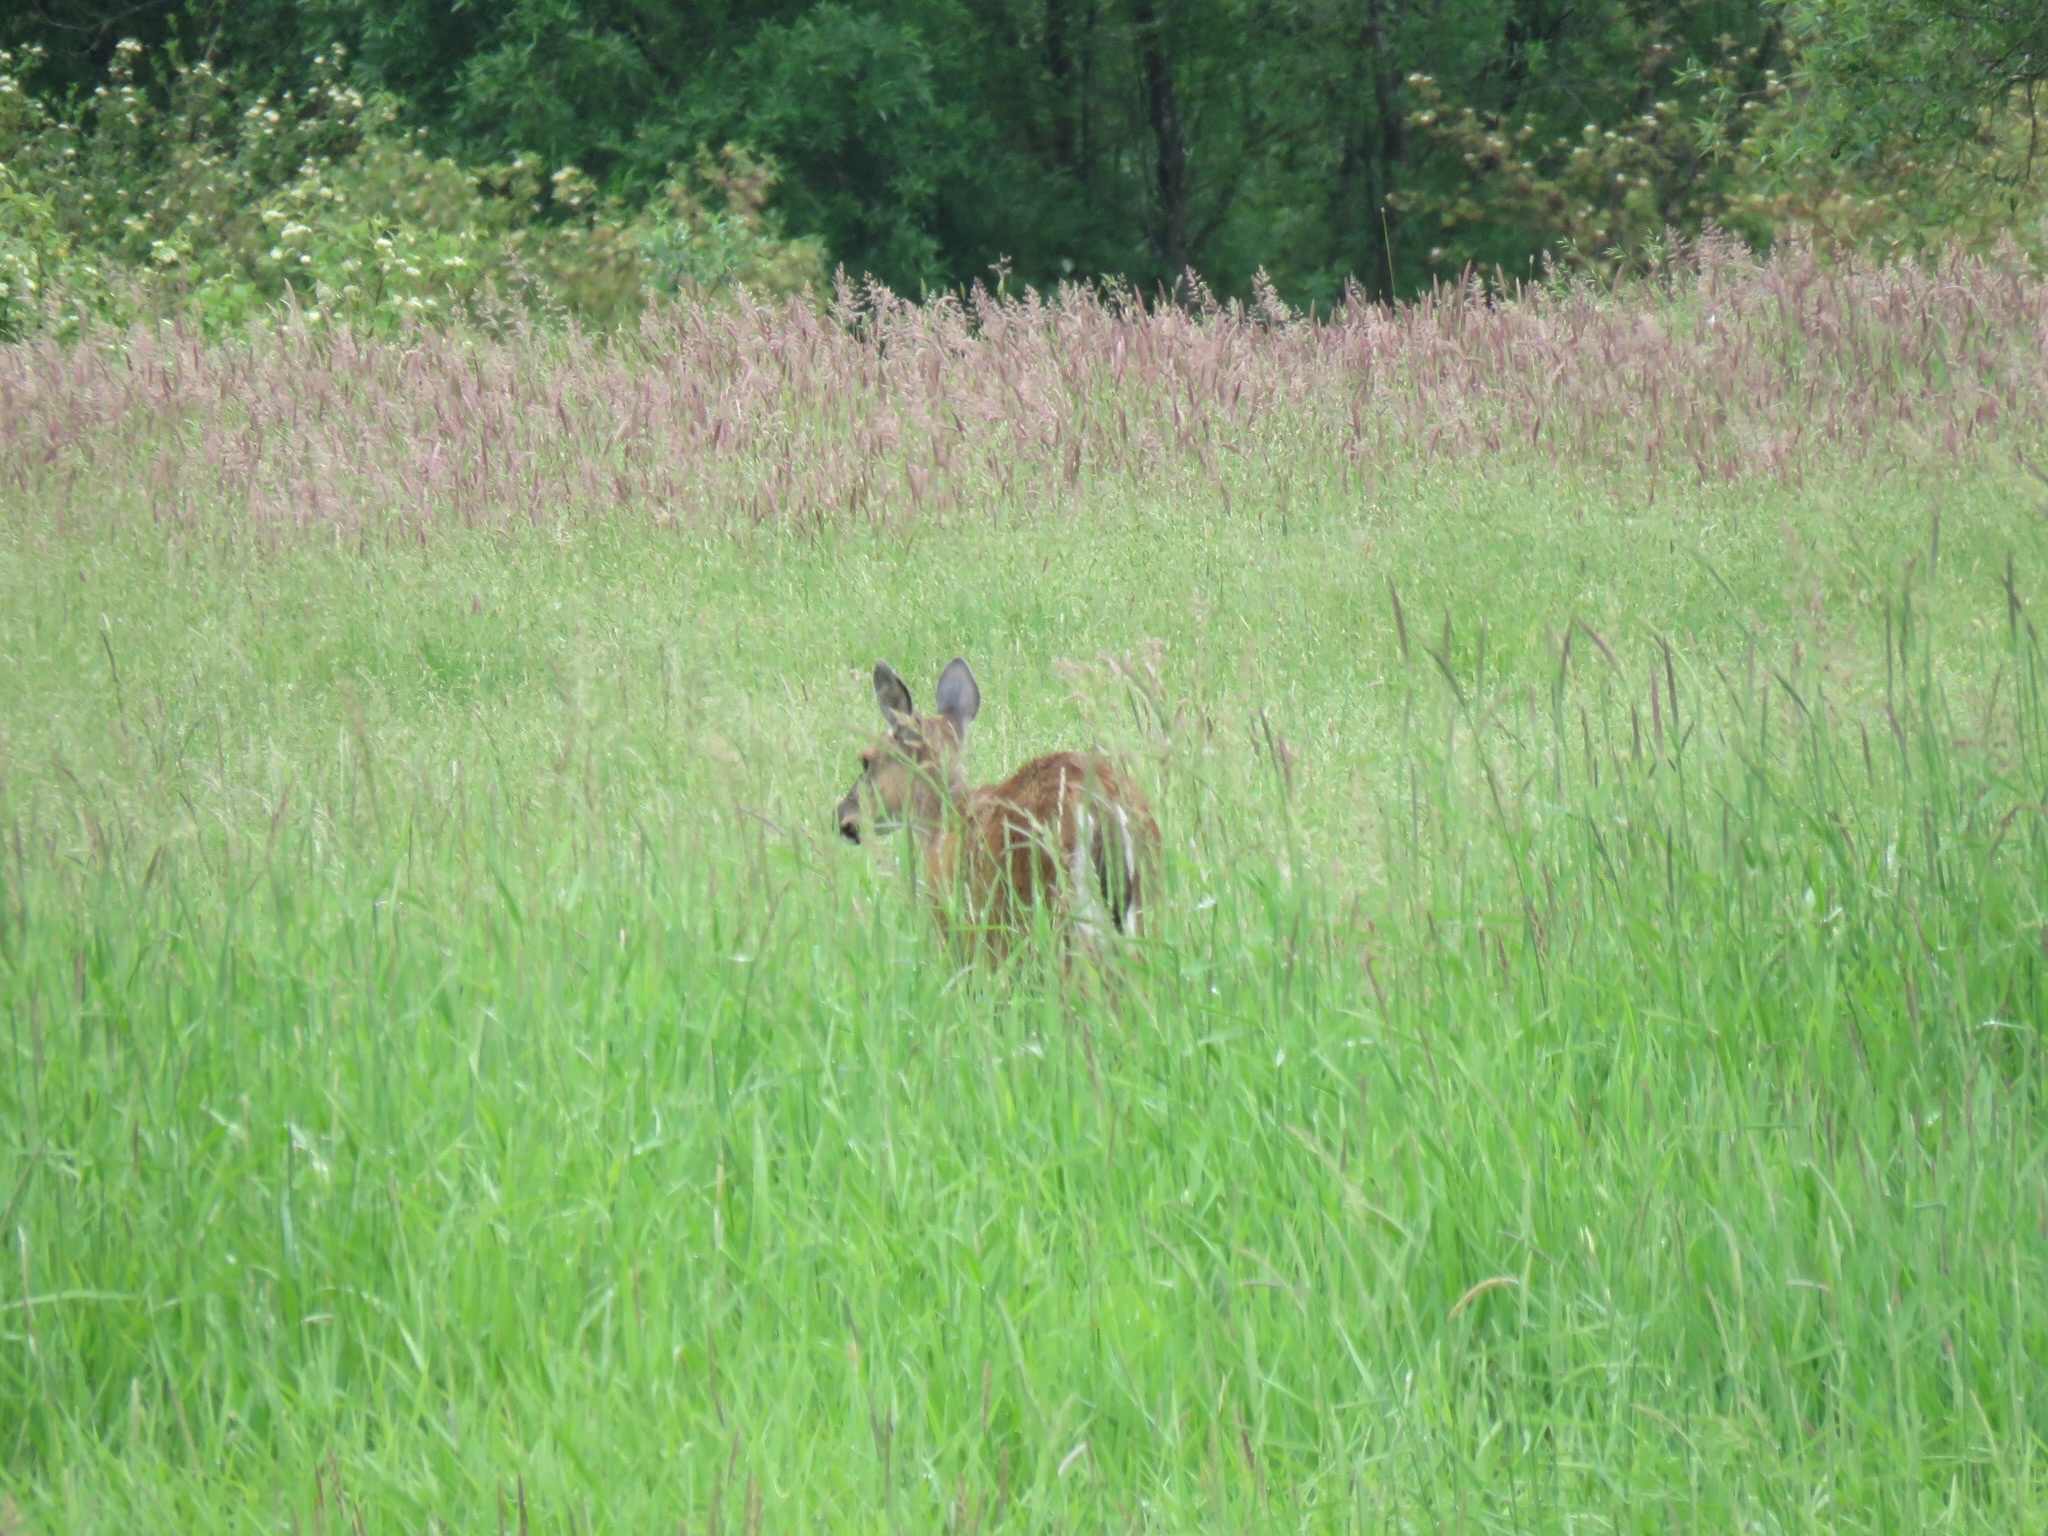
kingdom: Animalia
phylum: Chordata
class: Mammalia
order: Artiodactyla
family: Cervidae
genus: Odocoileus
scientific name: Odocoileus hemionus
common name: Mule deer
